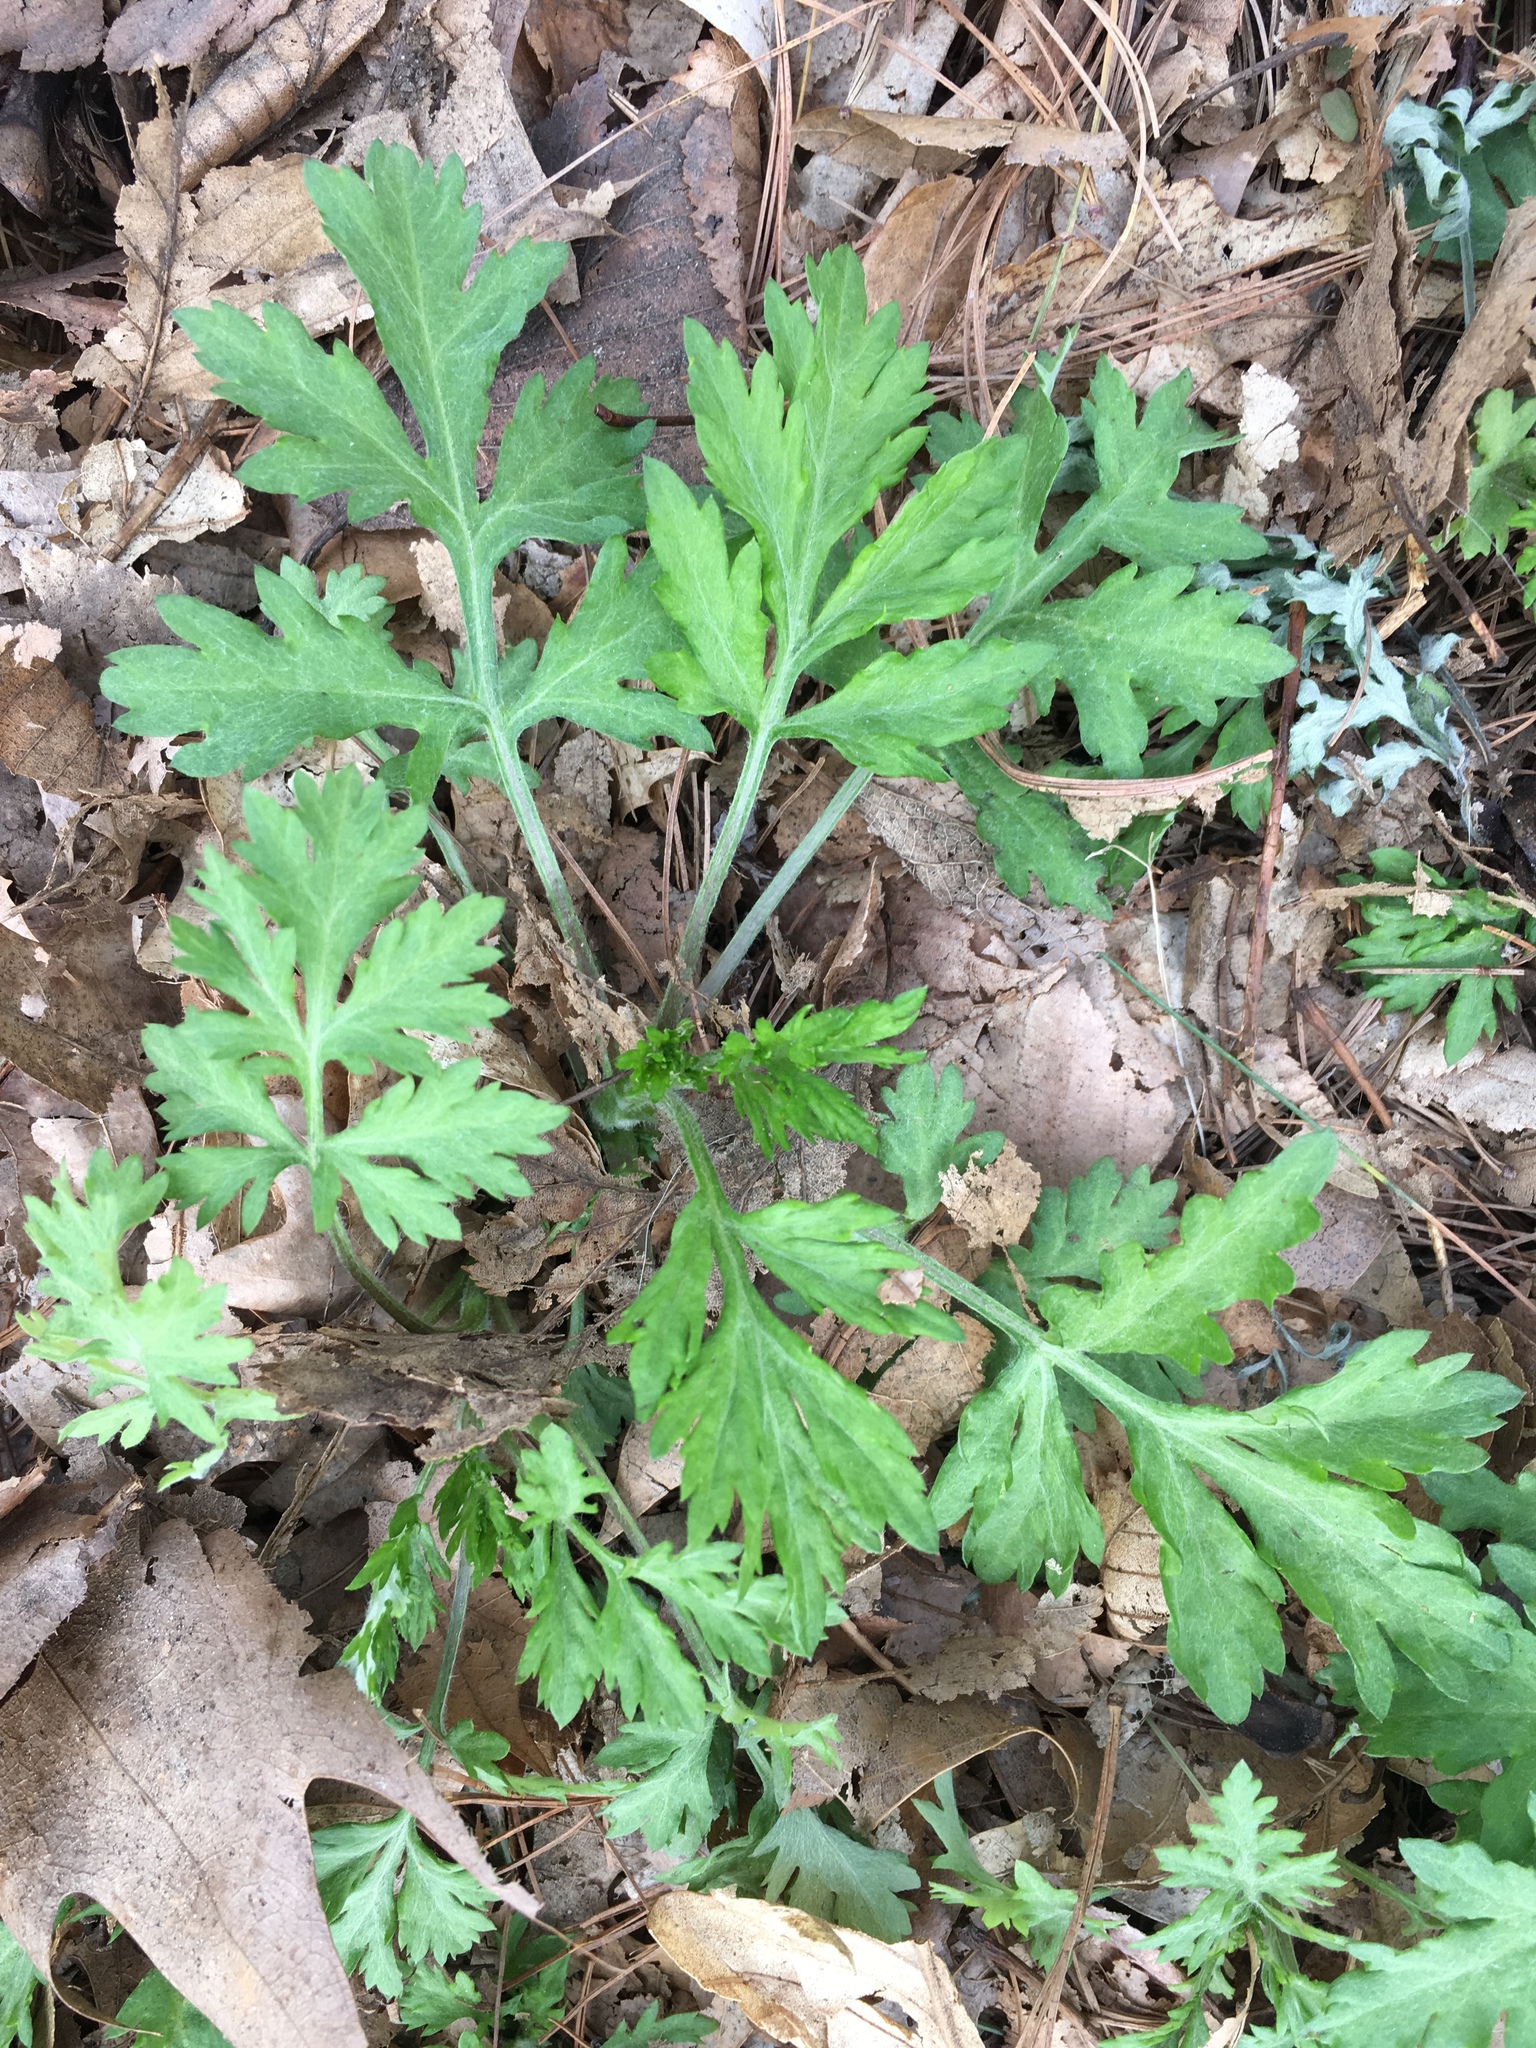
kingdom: Plantae
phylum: Tracheophyta
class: Magnoliopsida
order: Asterales
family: Asteraceae
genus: Artemisia
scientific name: Artemisia vulgaris
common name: Mugwort
